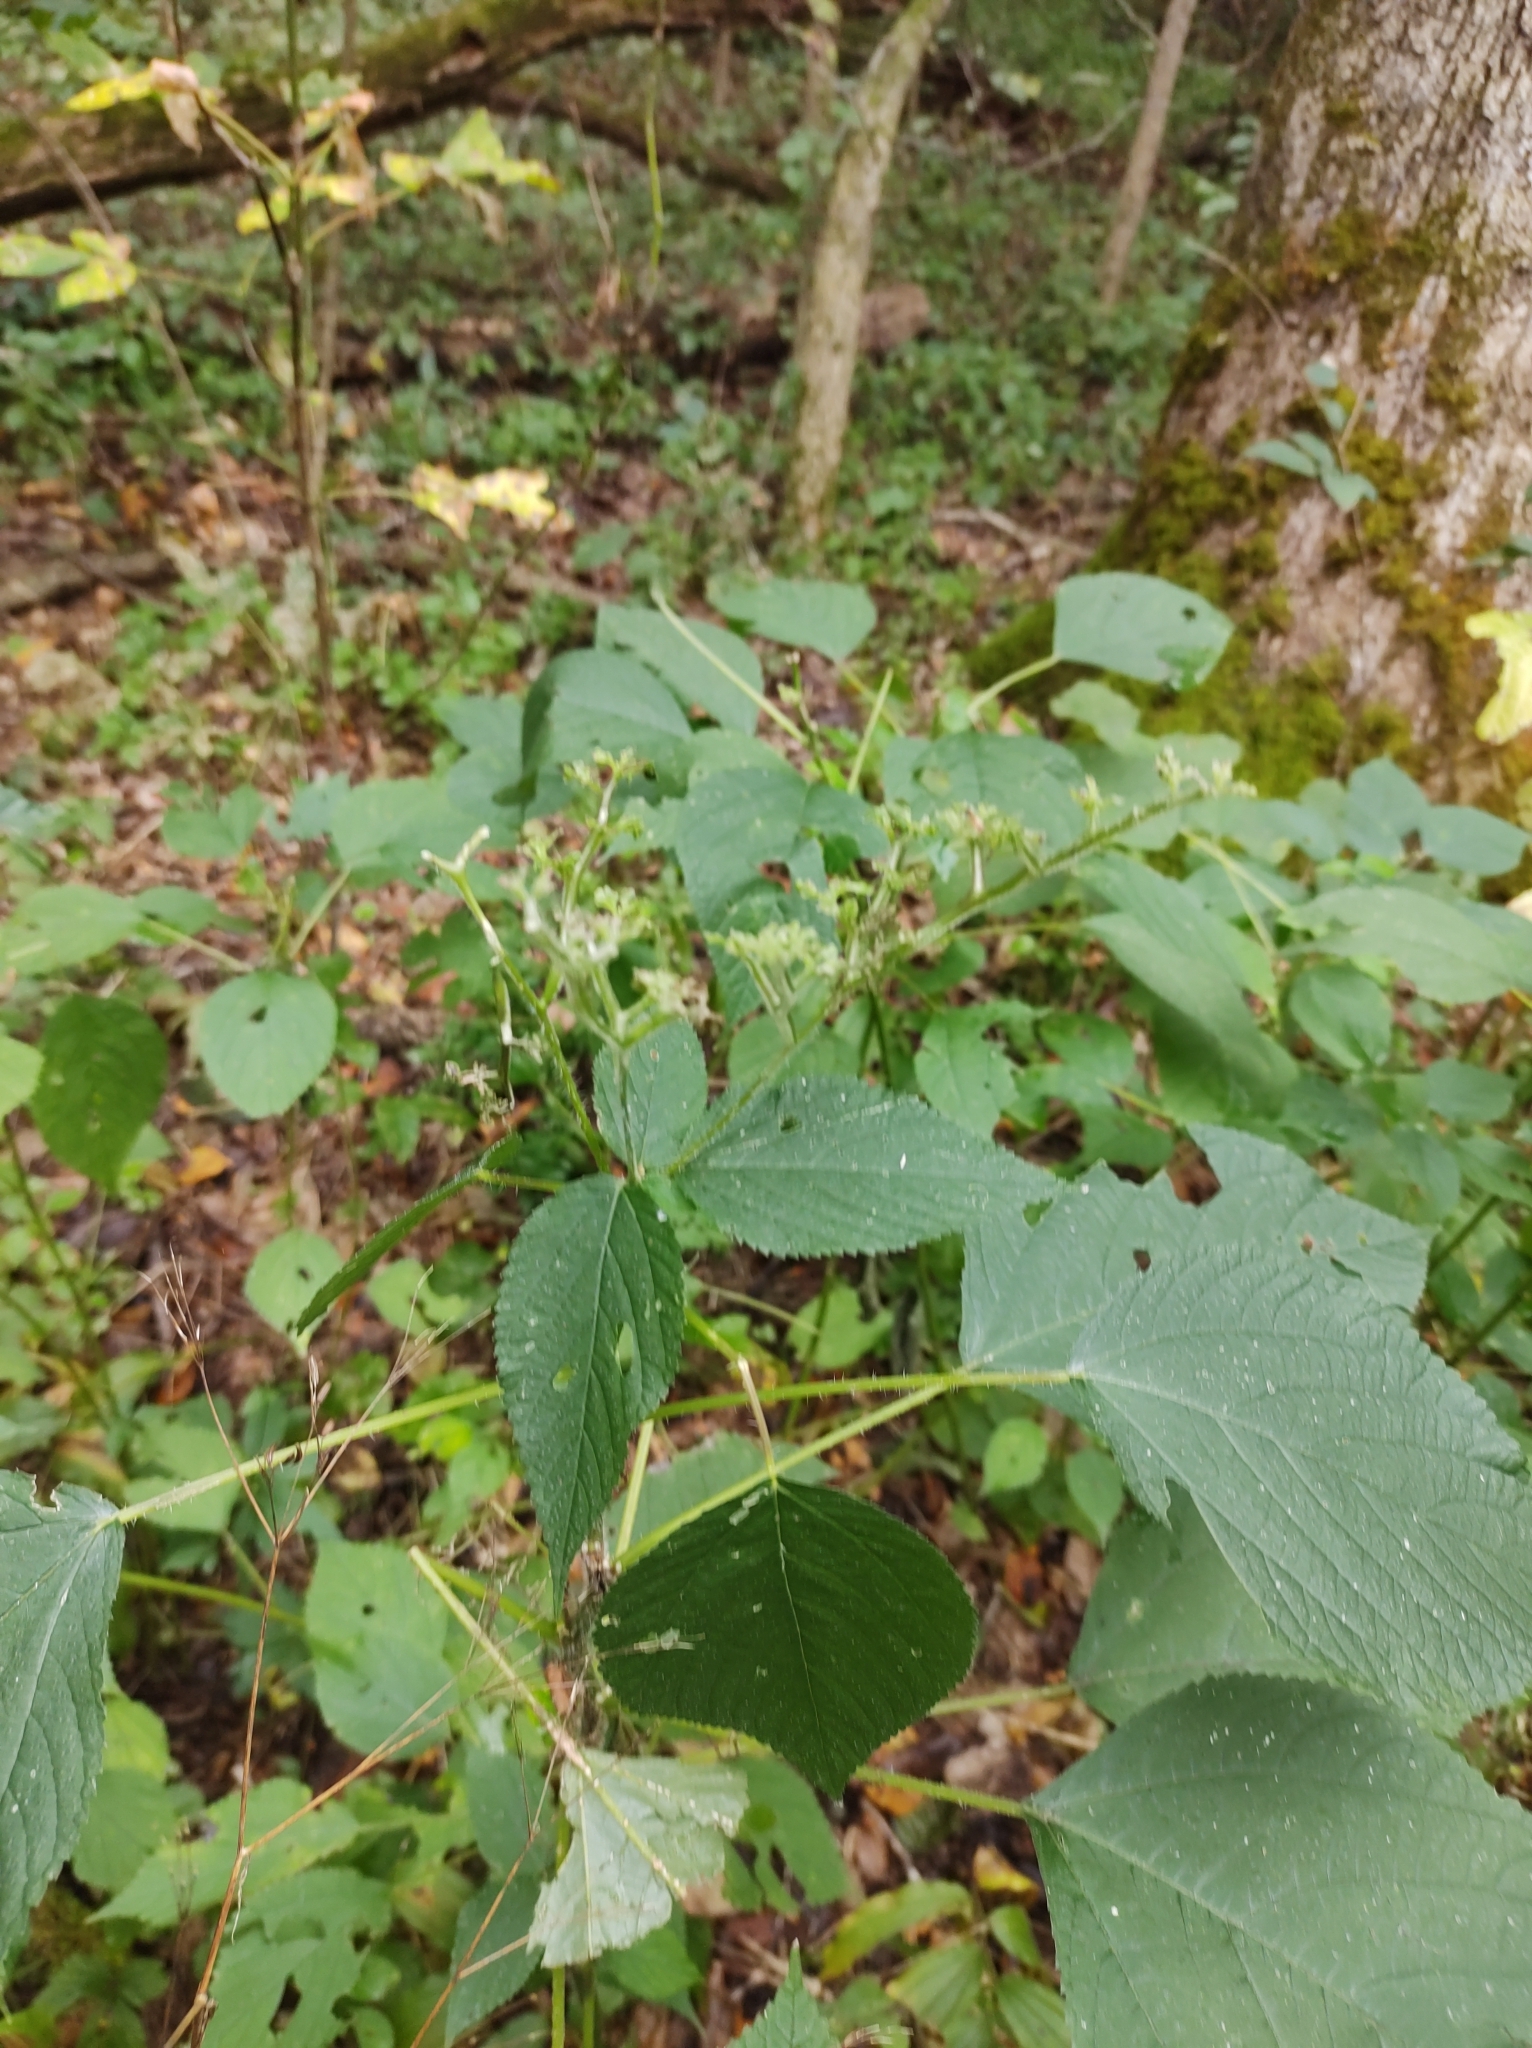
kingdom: Plantae
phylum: Tracheophyta
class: Magnoliopsida
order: Rosales
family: Urticaceae
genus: Laportea
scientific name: Laportea canadensis
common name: Canada nettle
